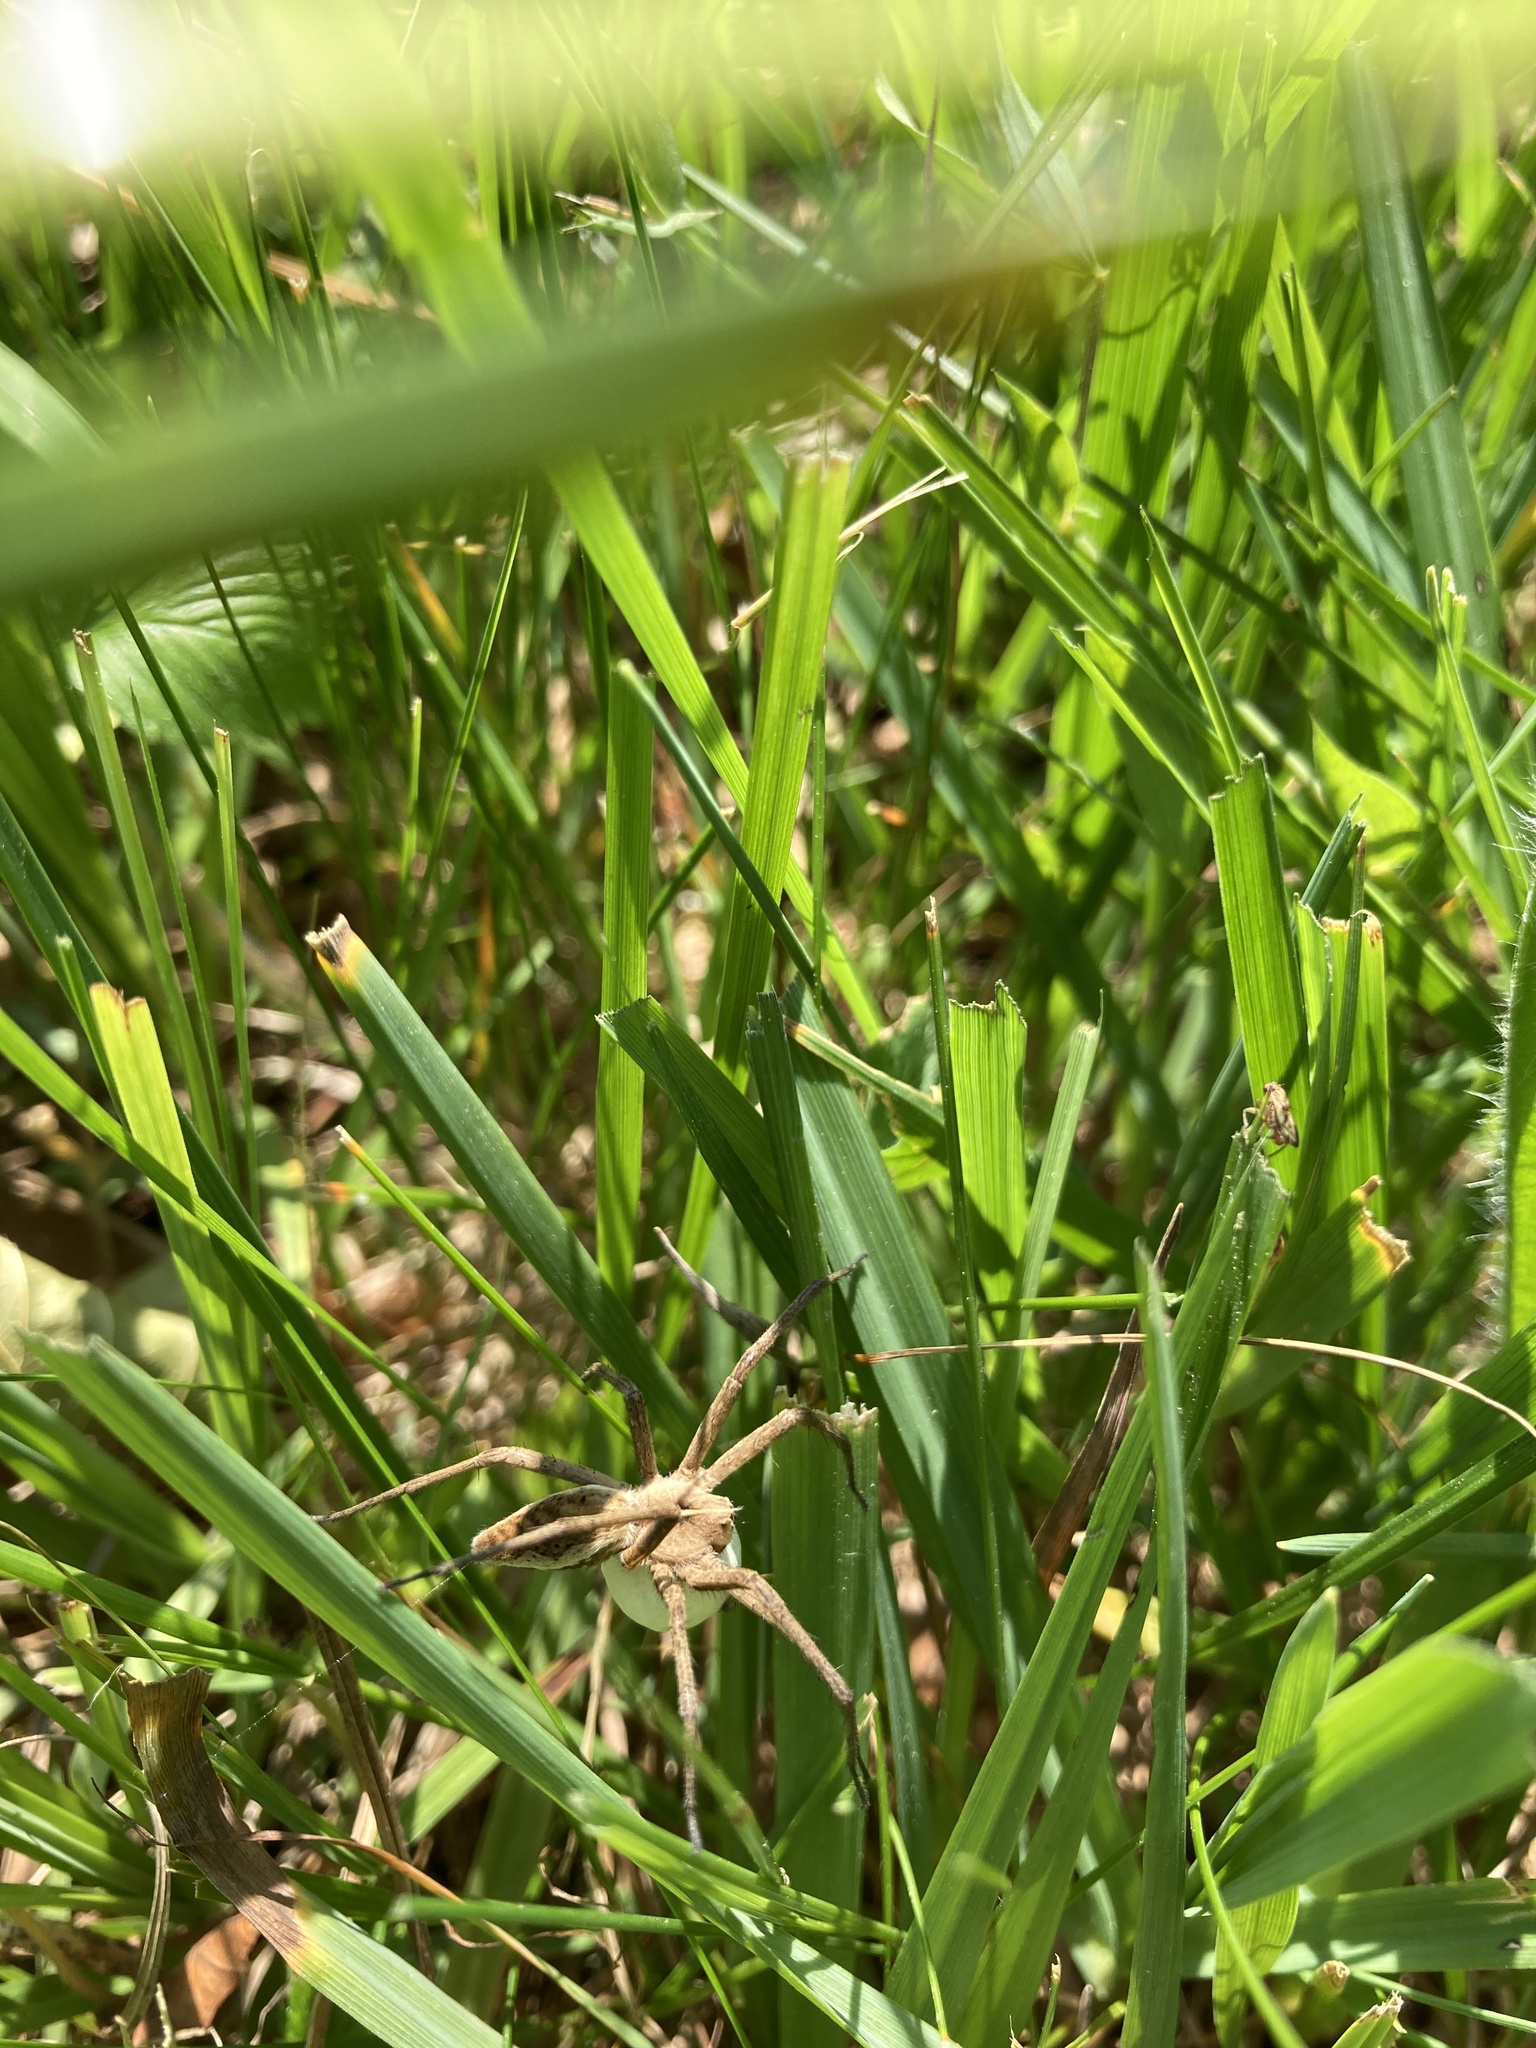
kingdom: Animalia
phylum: Arthropoda
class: Arachnida
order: Araneae
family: Pisauridae
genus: Pisaura
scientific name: Pisaura mirabilis
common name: Tent spider
